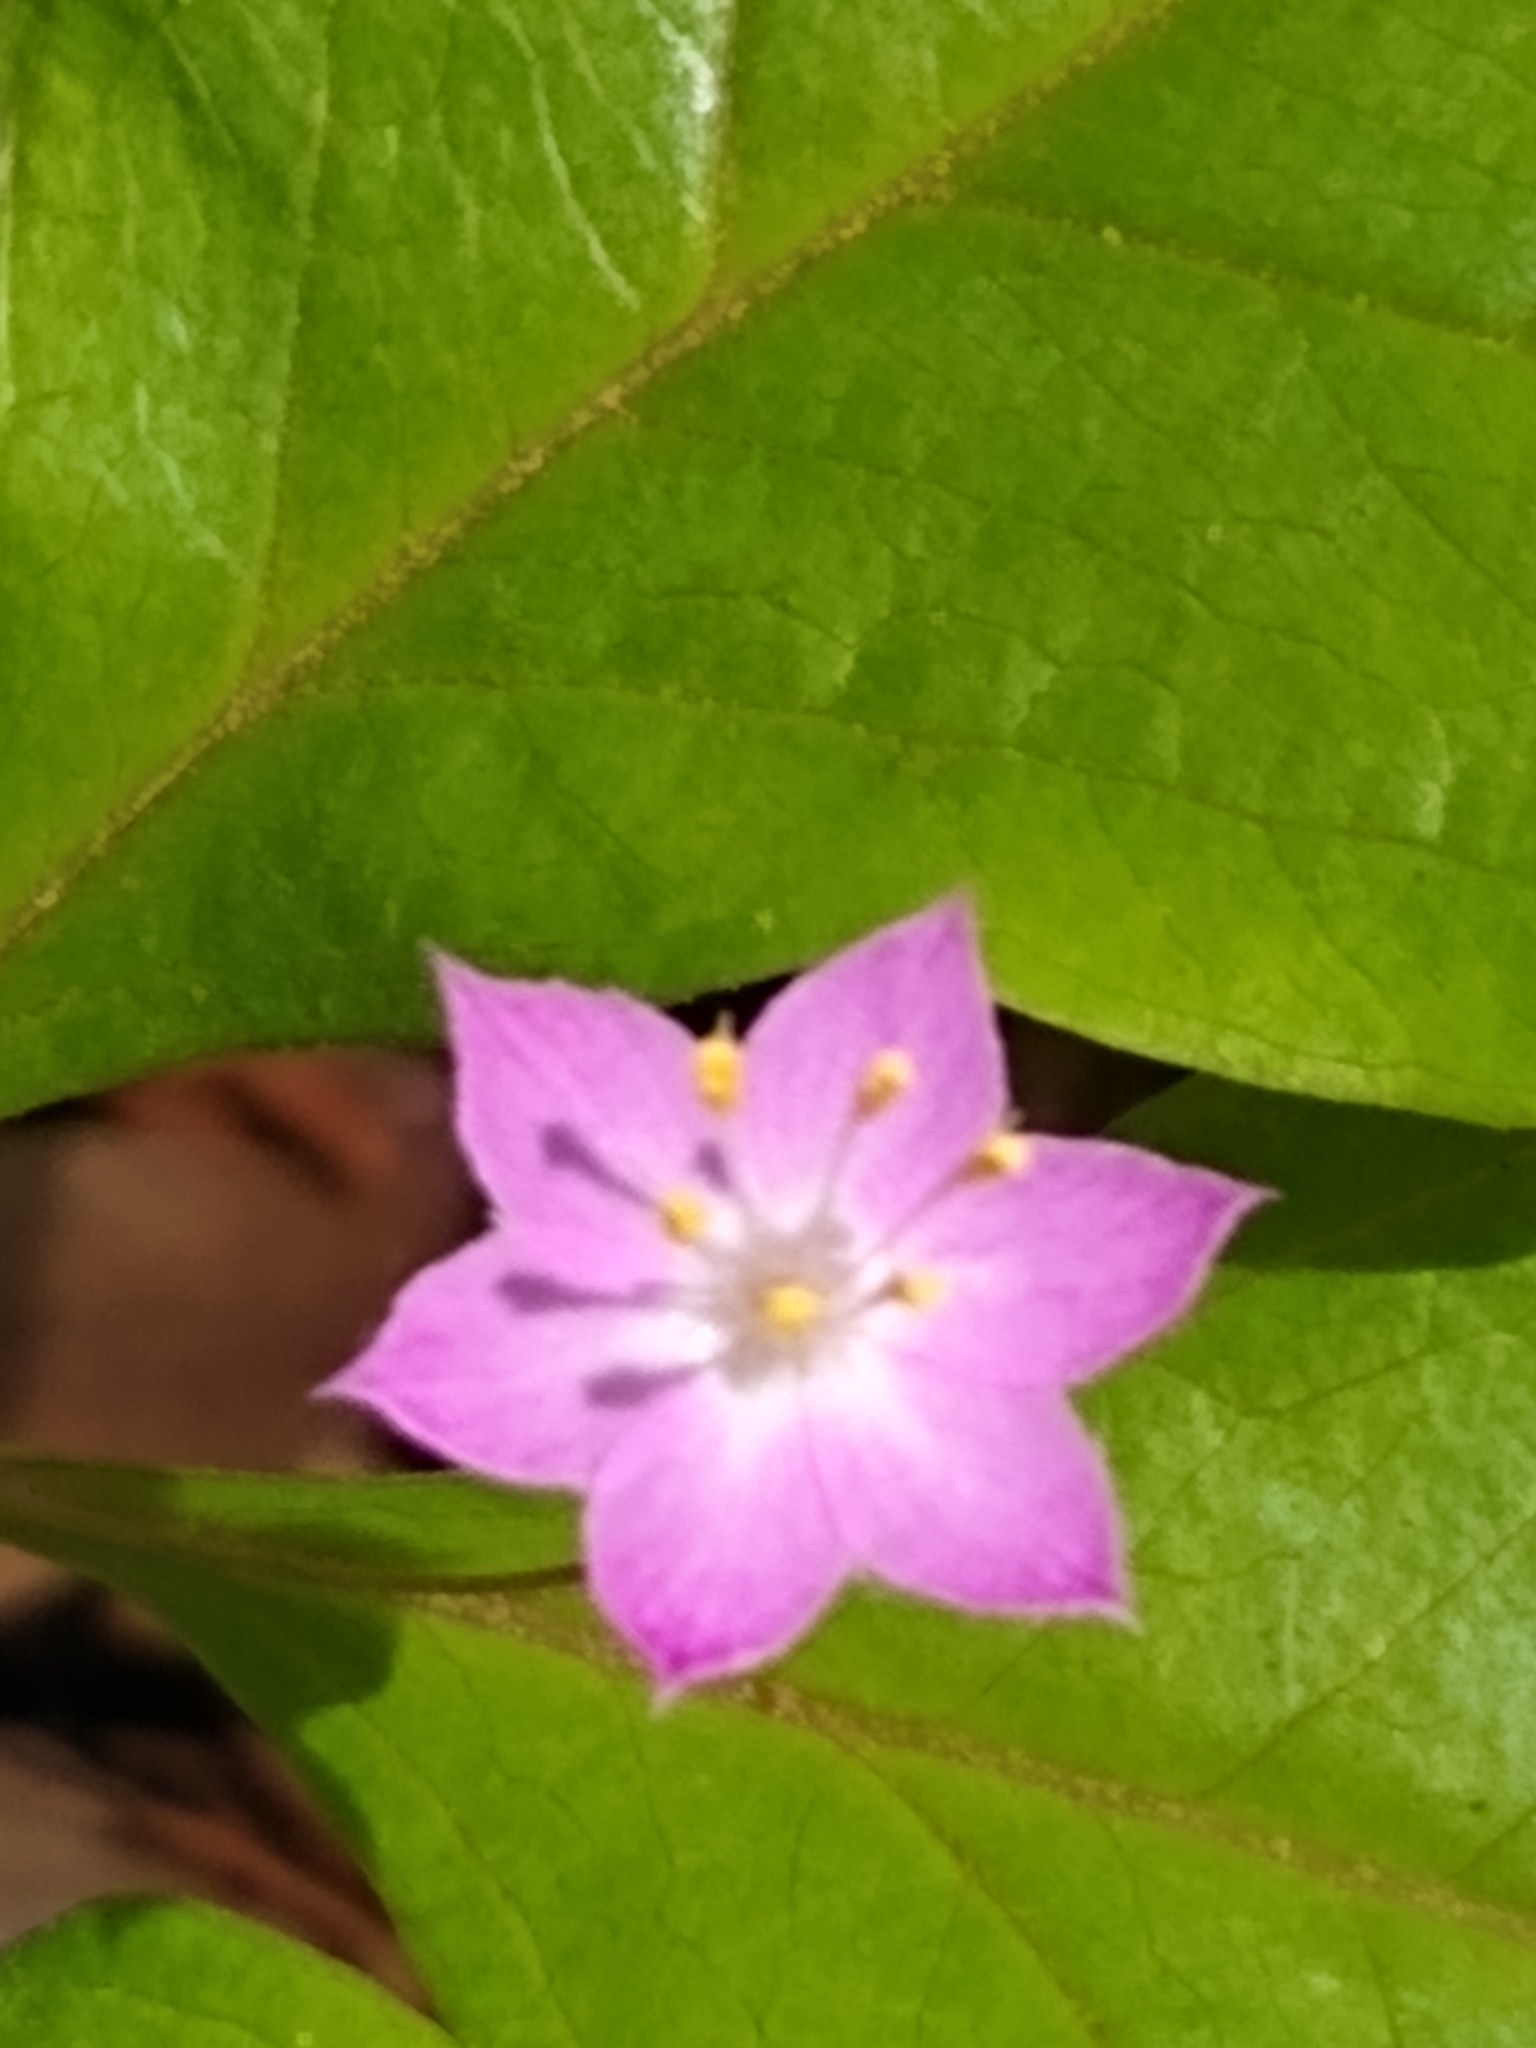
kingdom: Plantae
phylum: Tracheophyta
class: Magnoliopsida
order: Ericales
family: Primulaceae
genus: Lysimachia
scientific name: Lysimachia latifolia
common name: Pacific starflower
